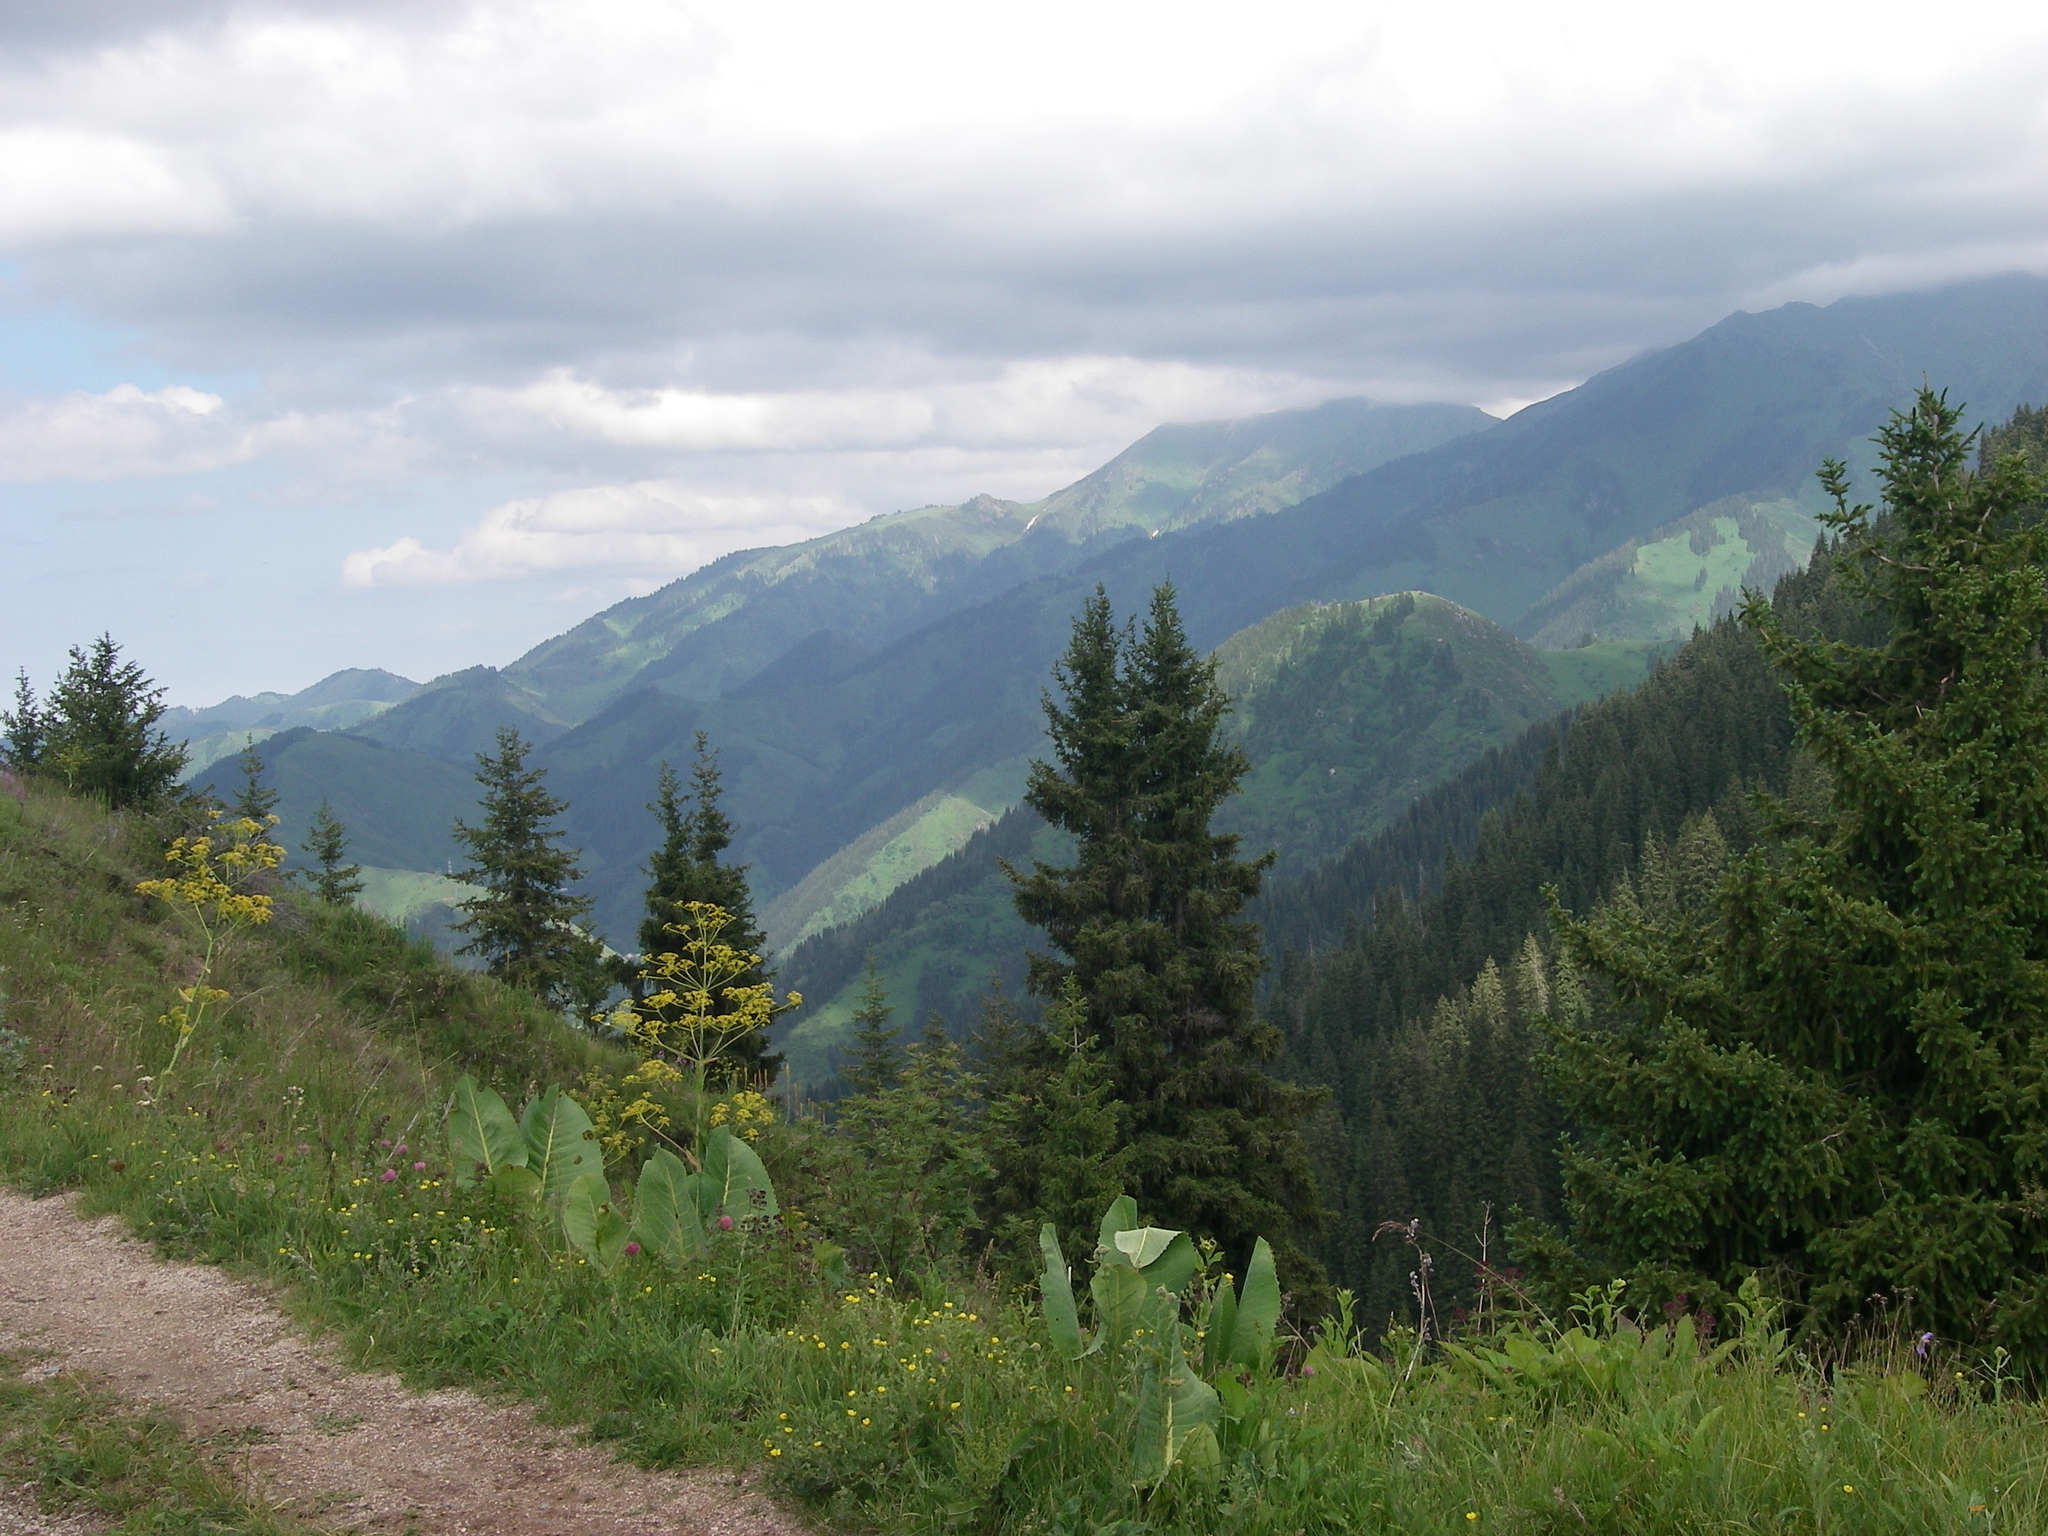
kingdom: Plantae
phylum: Tracheophyta
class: Magnoliopsida
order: Apiales
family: Apiaceae
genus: Ferula
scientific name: Ferula kelleri
